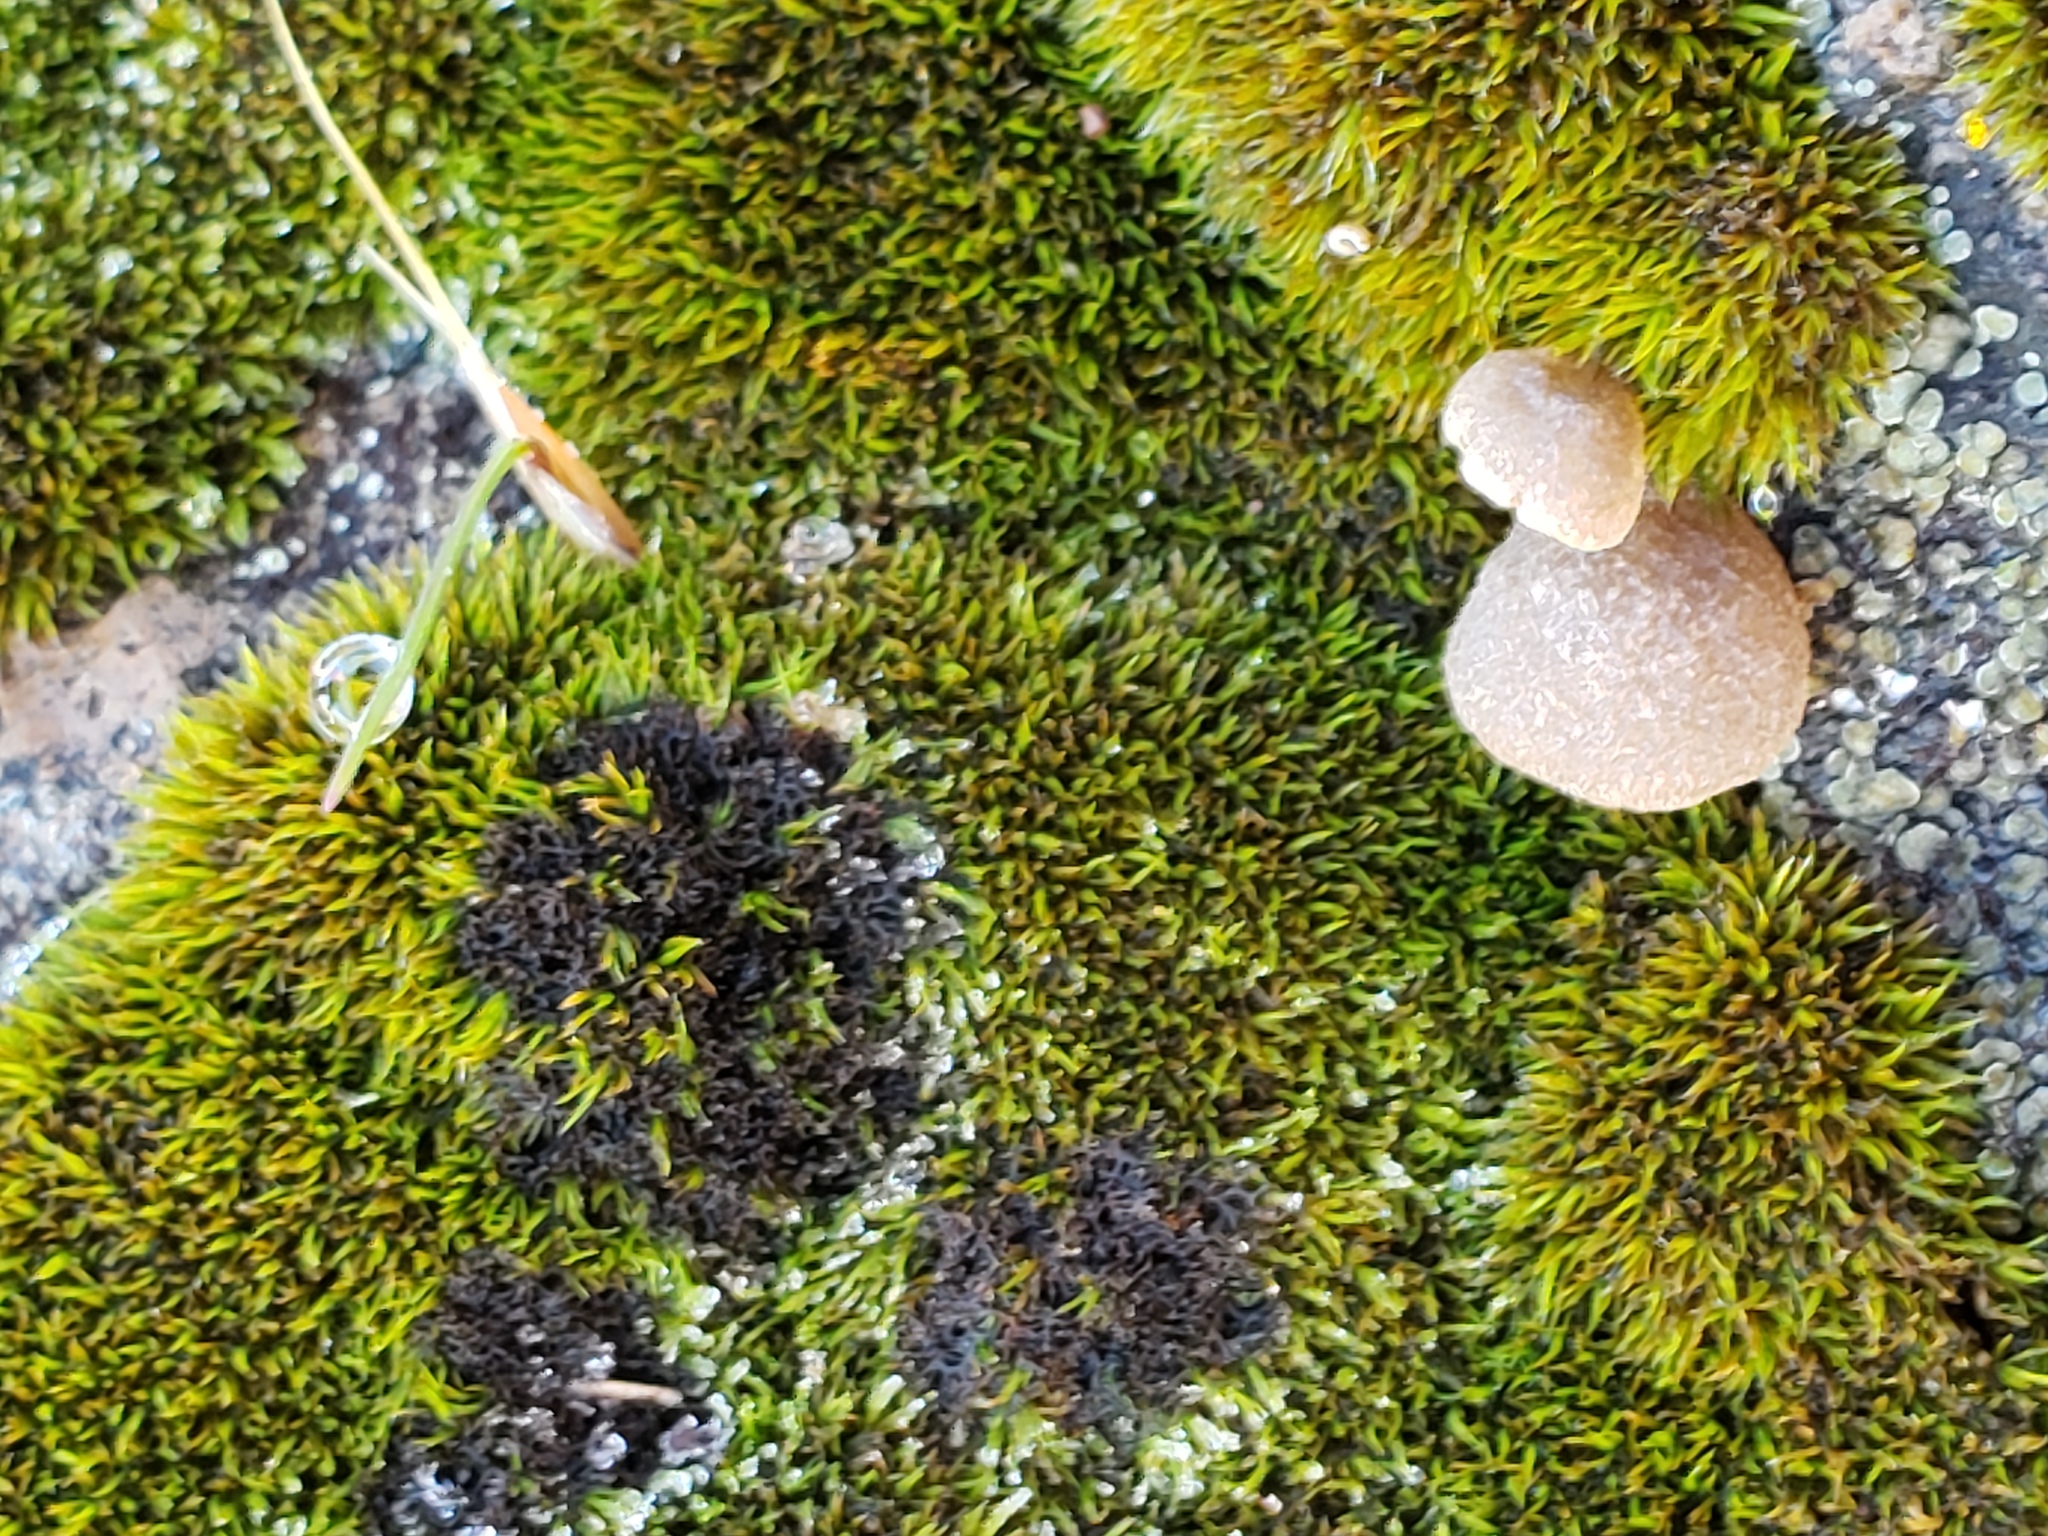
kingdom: Fungi
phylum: Basidiomycota
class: Agaricomycetes
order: Agaricales
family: Hygrophoraceae
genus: Arrhenia
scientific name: Arrhenia retiruga
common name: Small moss oysterling
